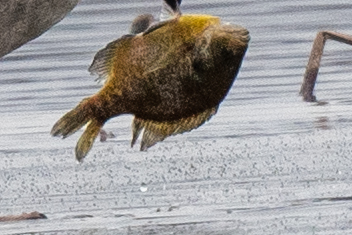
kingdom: Animalia
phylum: Chordata
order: Perciformes
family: Centrarchidae
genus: Lepomis
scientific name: Lepomis macrochirus
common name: Bluegill
